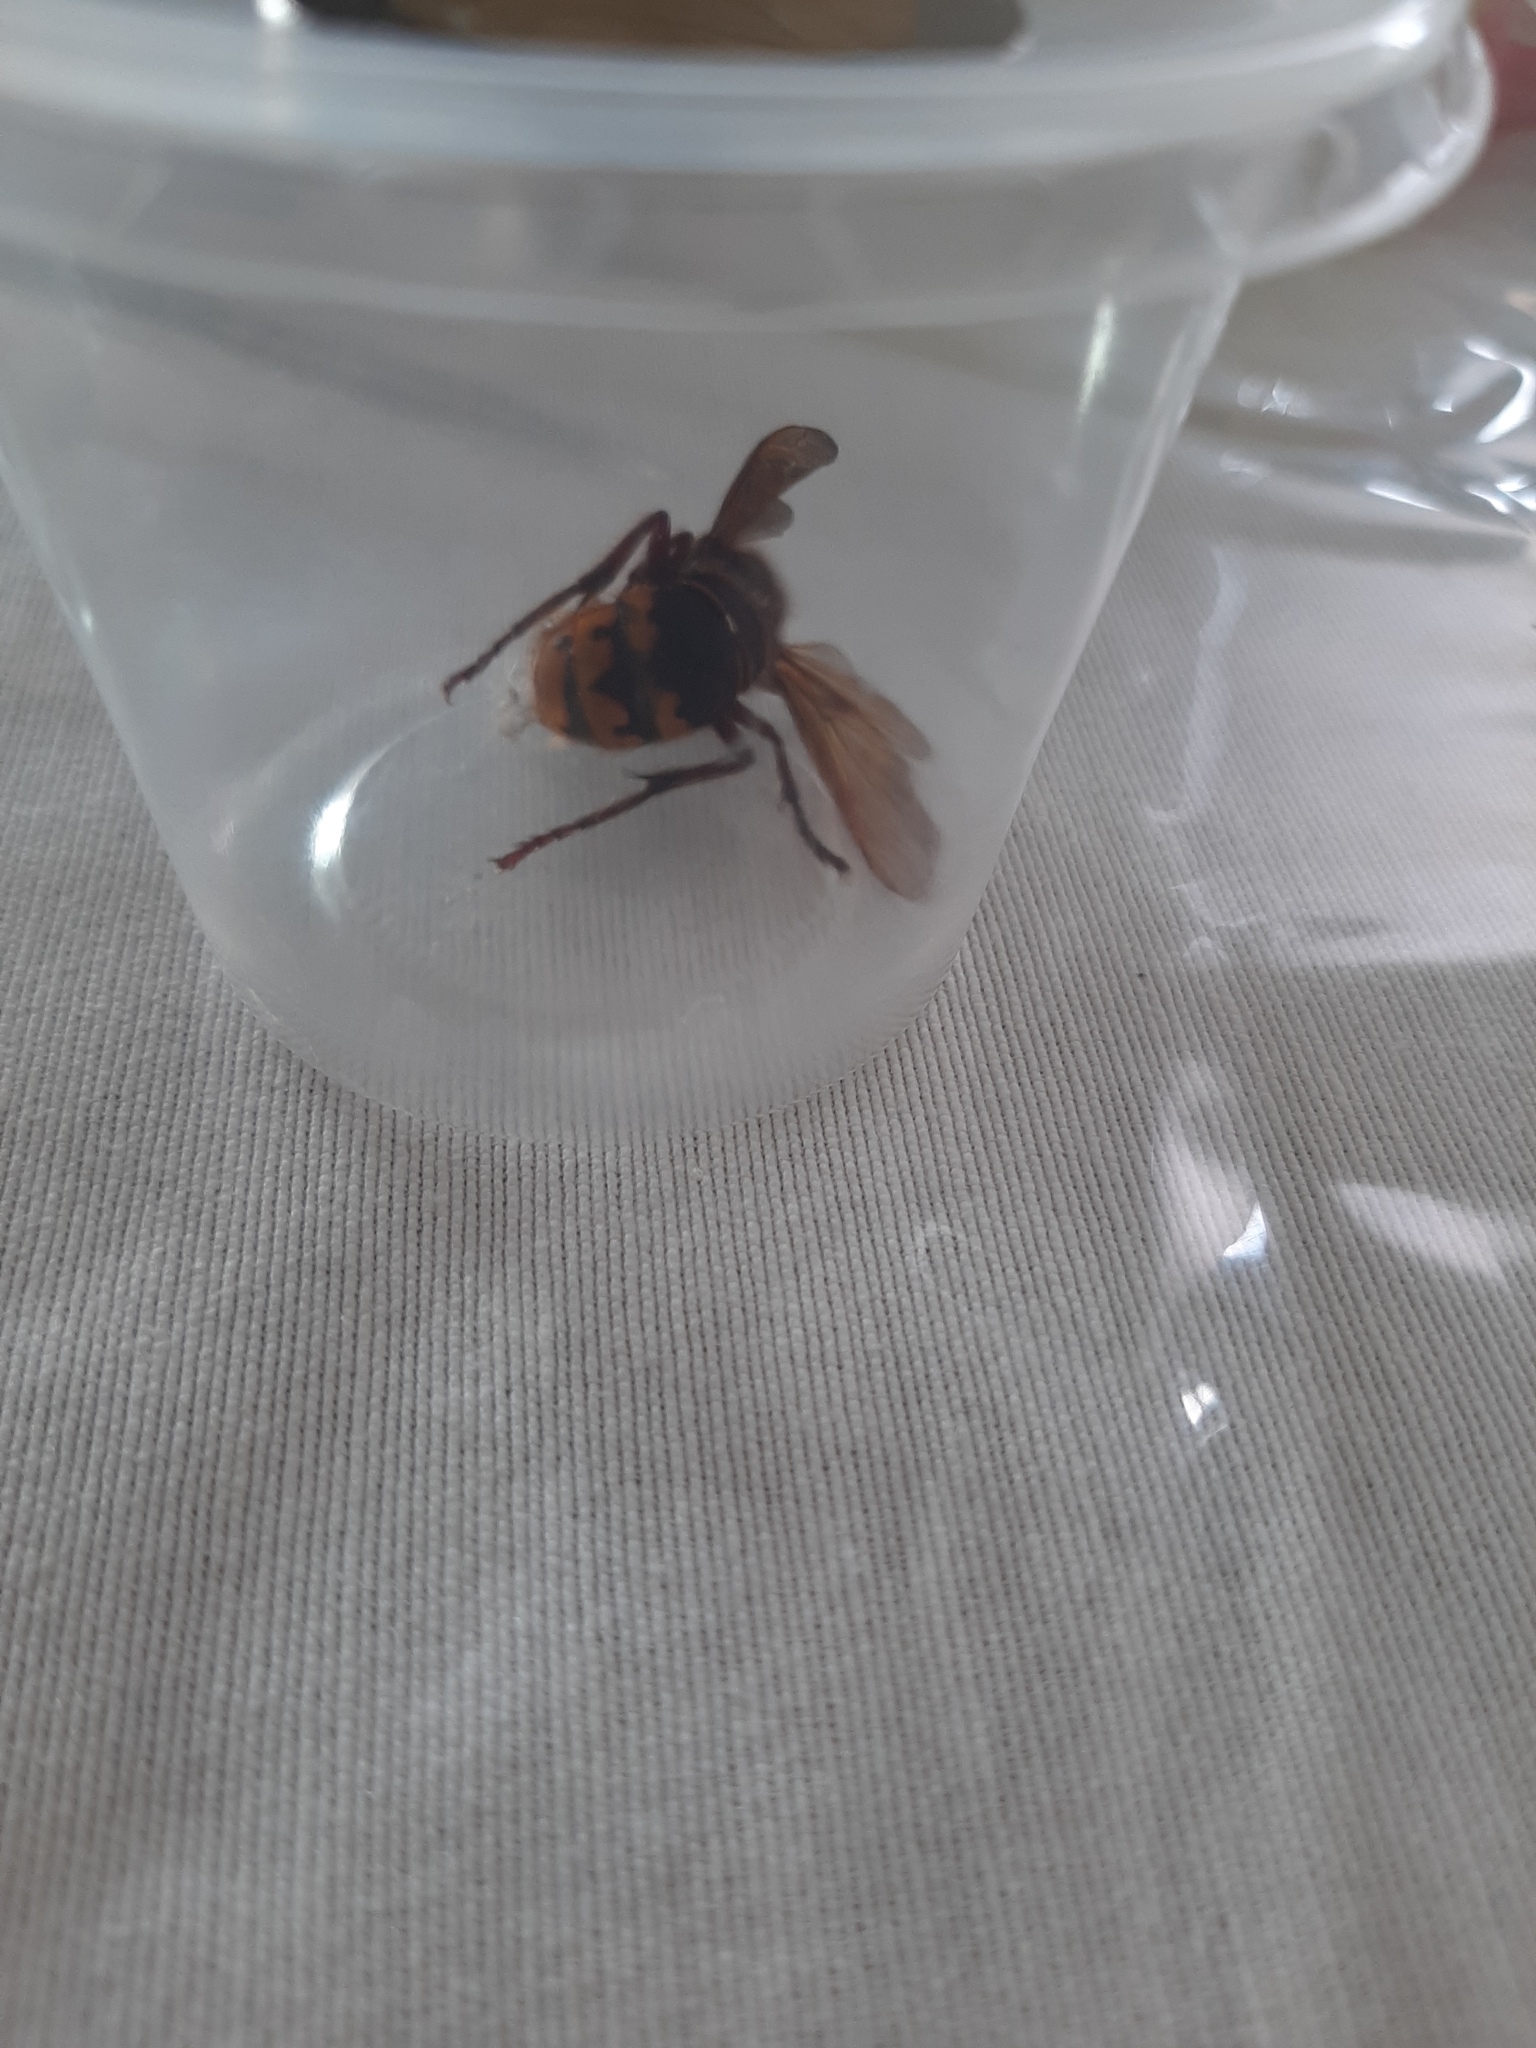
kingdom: Animalia
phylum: Arthropoda
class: Insecta
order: Hymenoptera
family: Vespidae
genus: Vespa
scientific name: Vespa crabro
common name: Hornet
